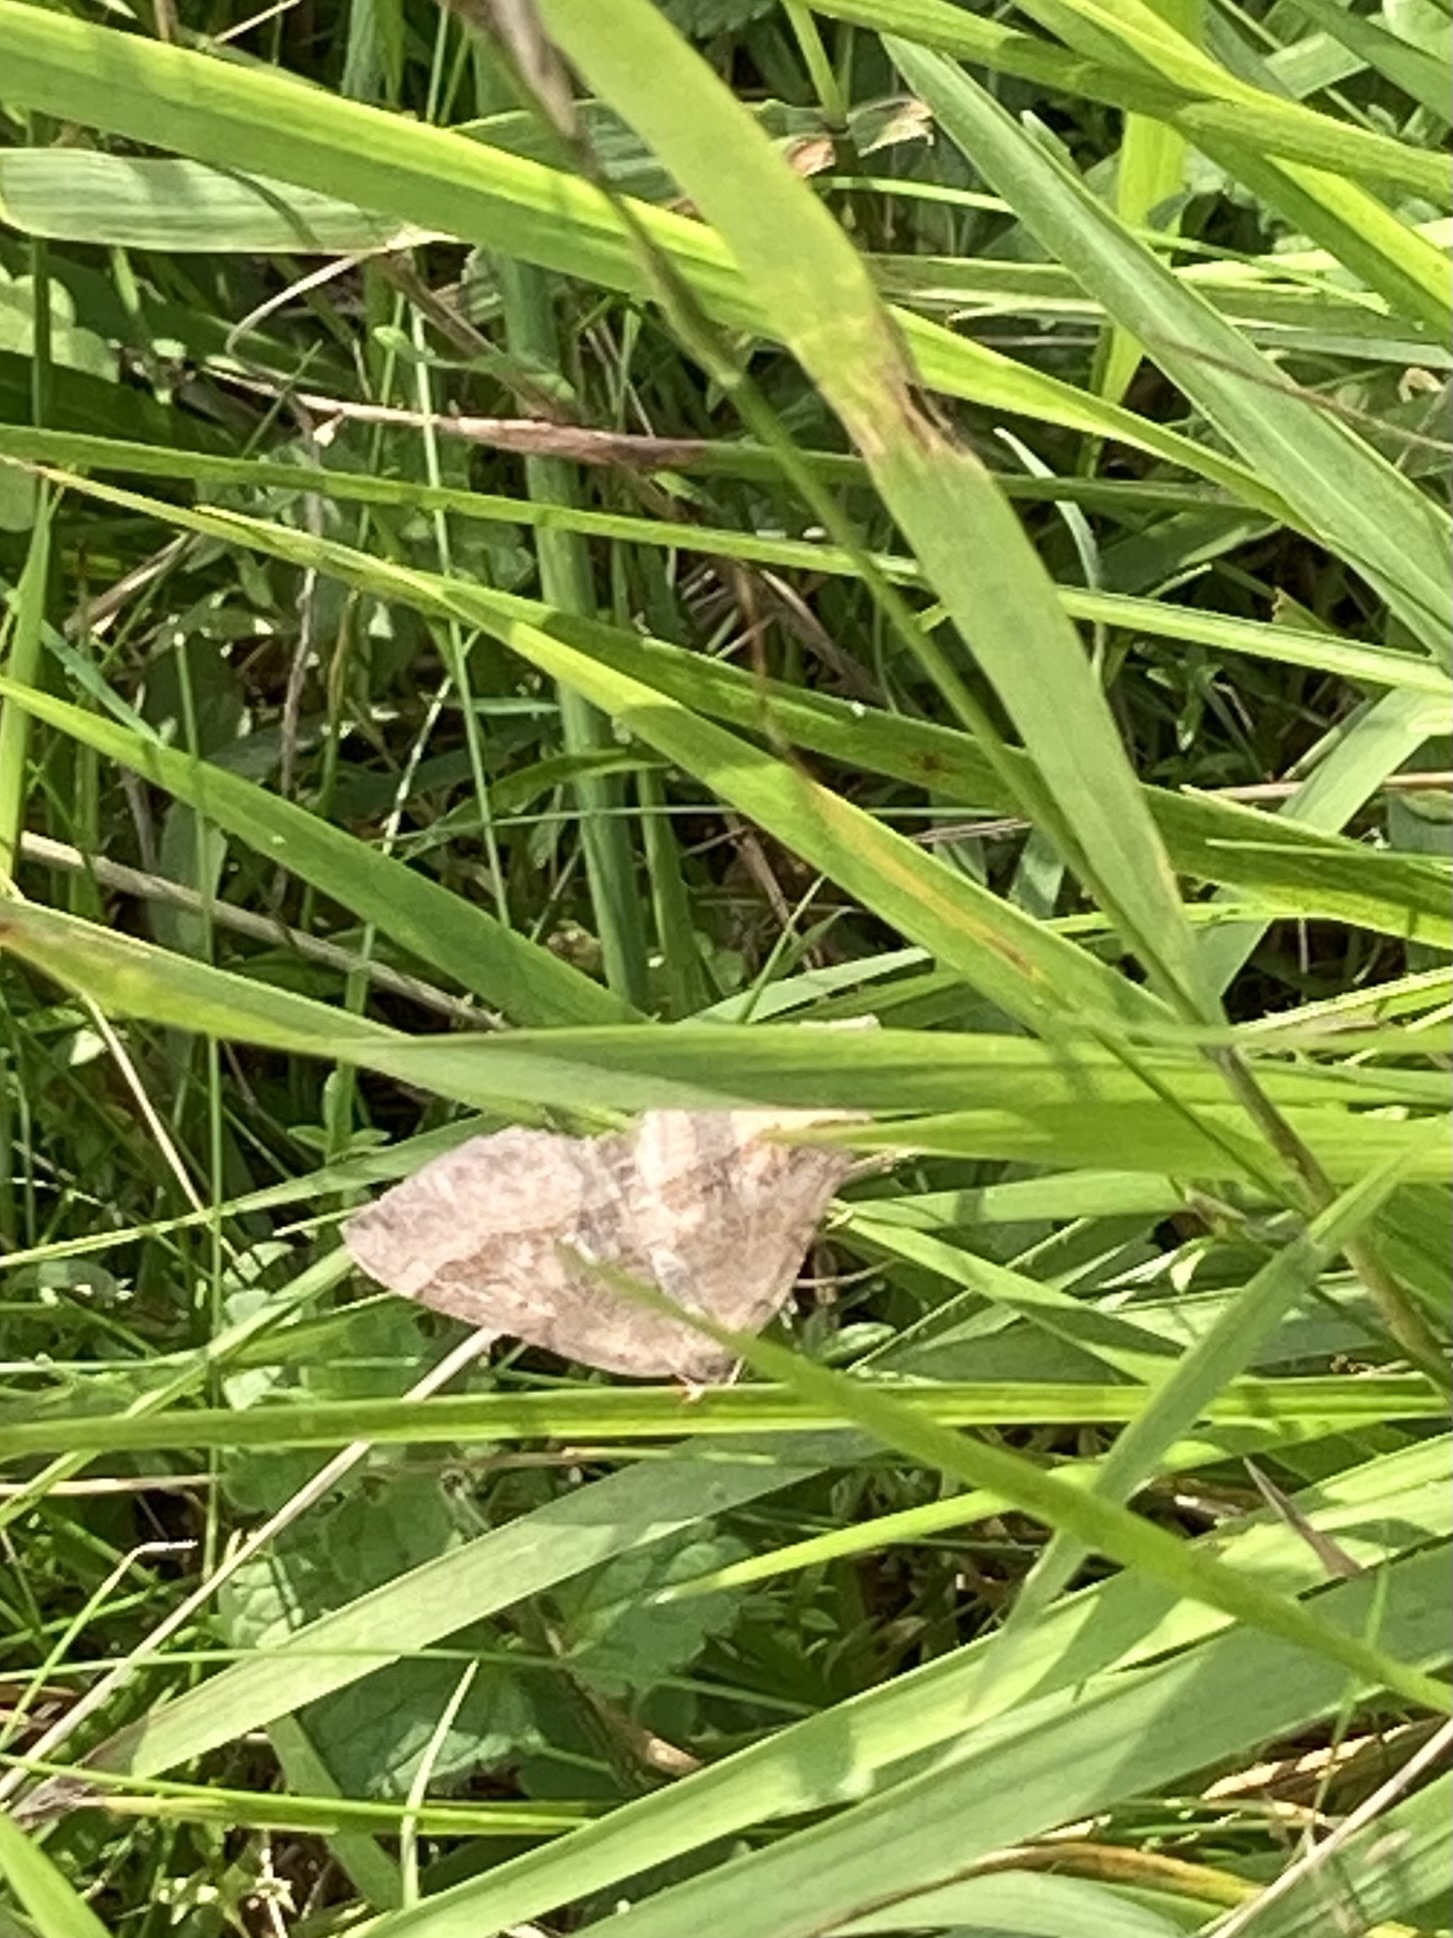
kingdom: Animalia
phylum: Arthropoda
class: Insecta
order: Lepidoptera
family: Geometridae
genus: Scotopteryx
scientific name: Scotopteryx chenopodiata
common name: Shaded broad-bar
